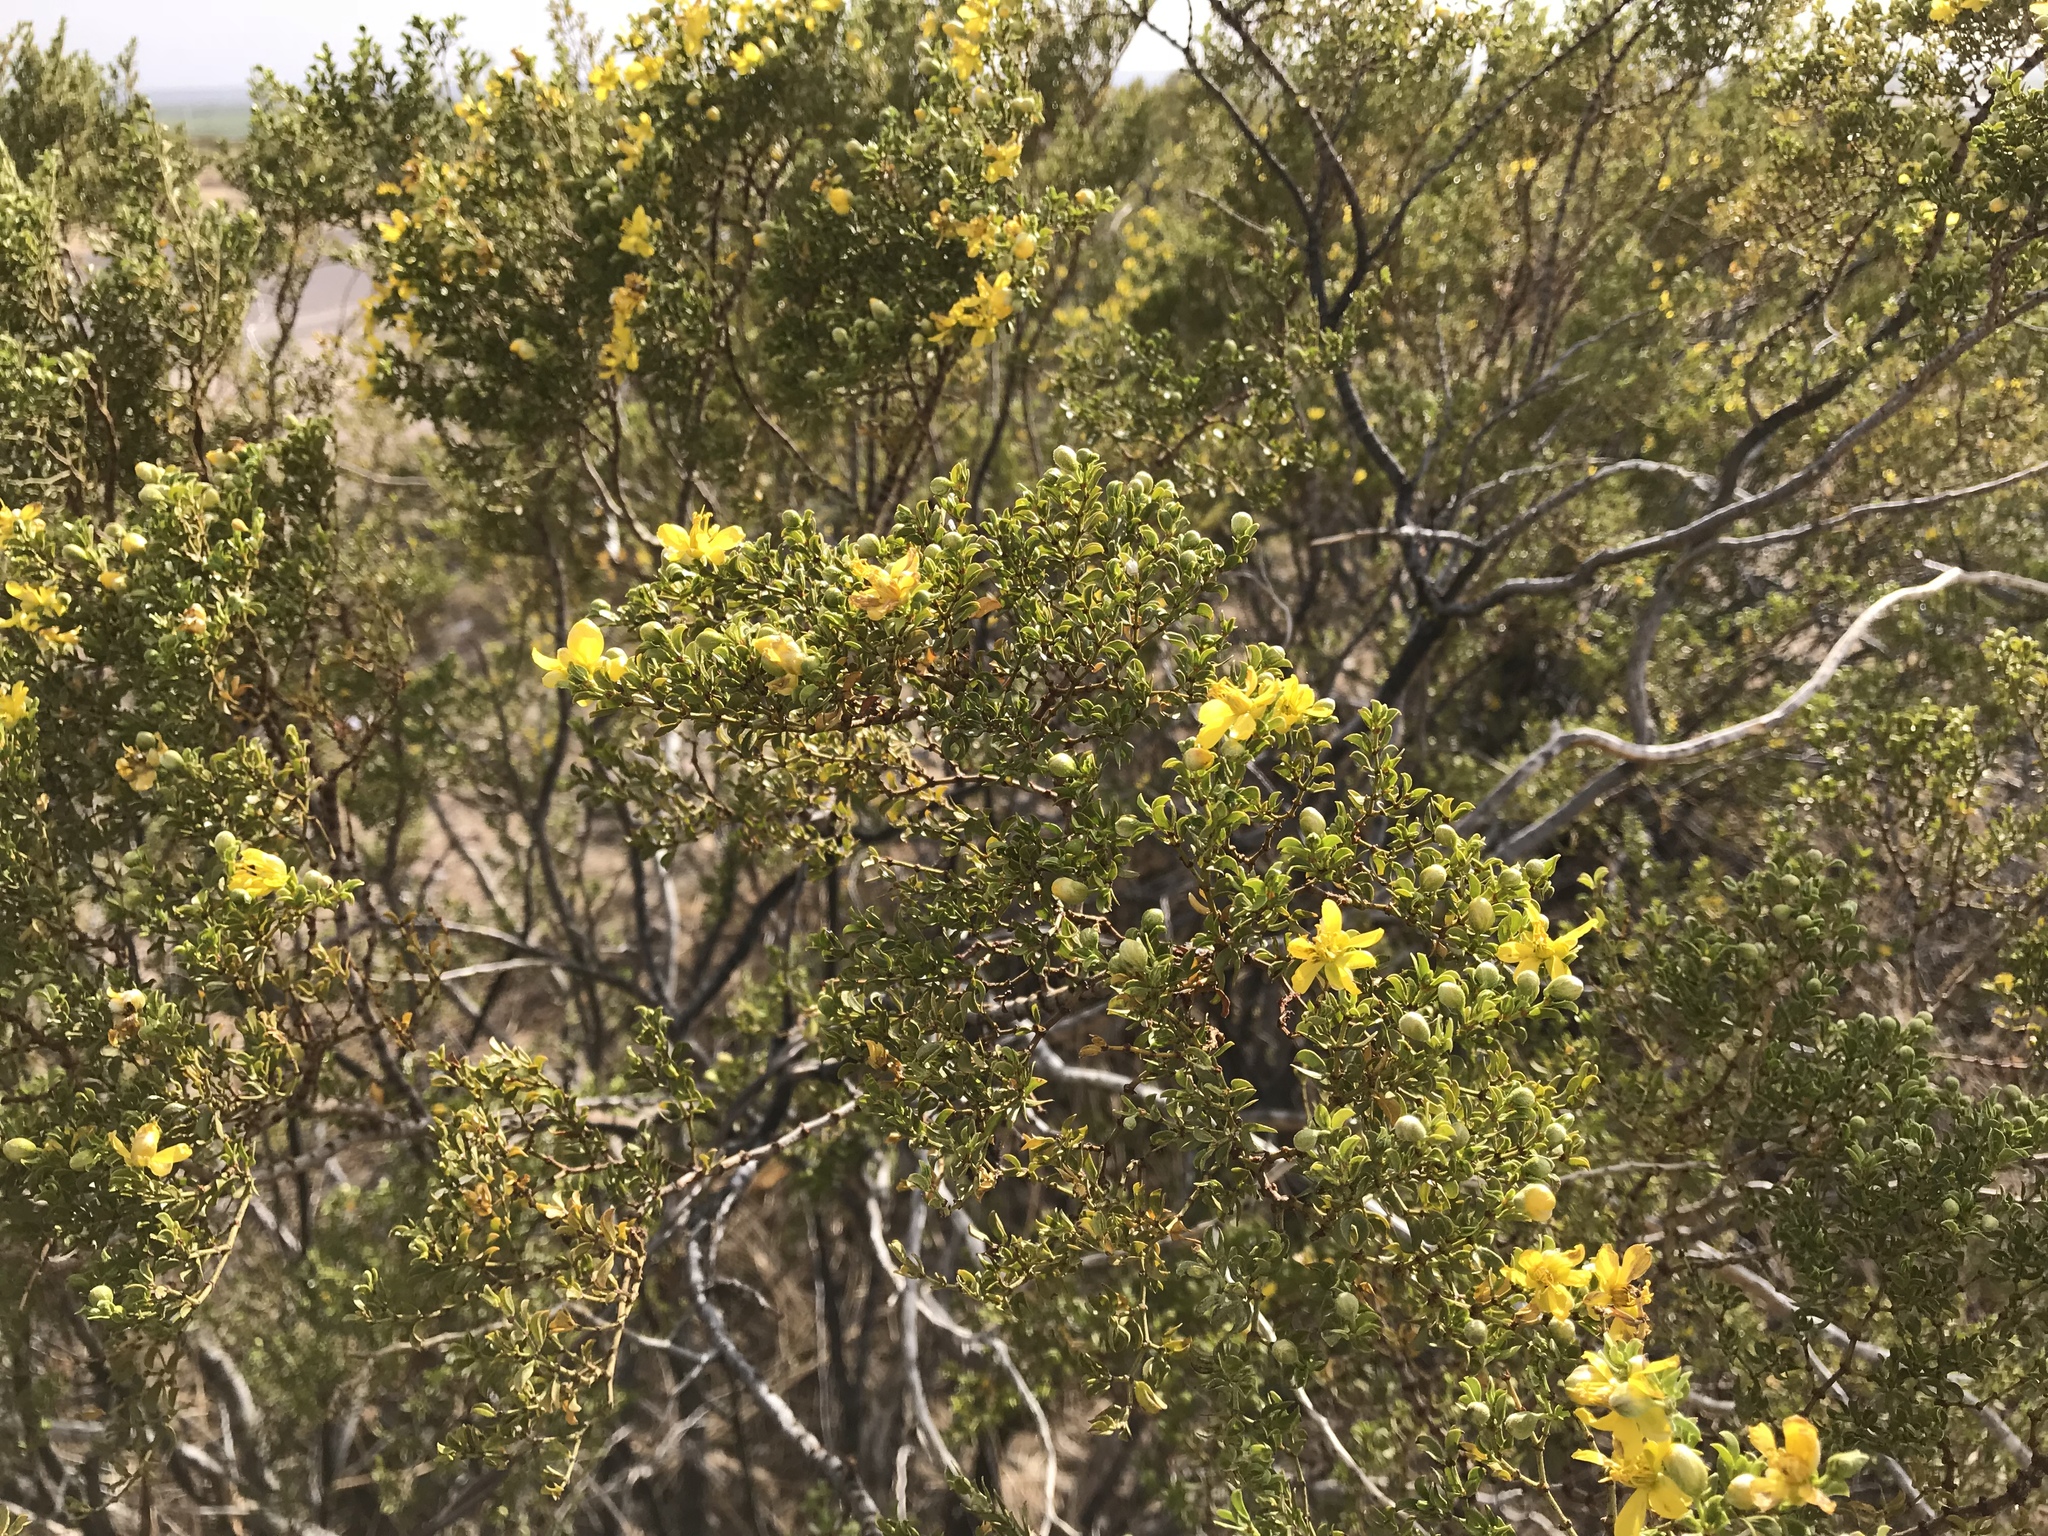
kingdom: Plantae
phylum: Tracheophyta
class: Magnoliopsida
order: Zygophyllales
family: Zygophyllaceae
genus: Larrea
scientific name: Larrea tridentata
